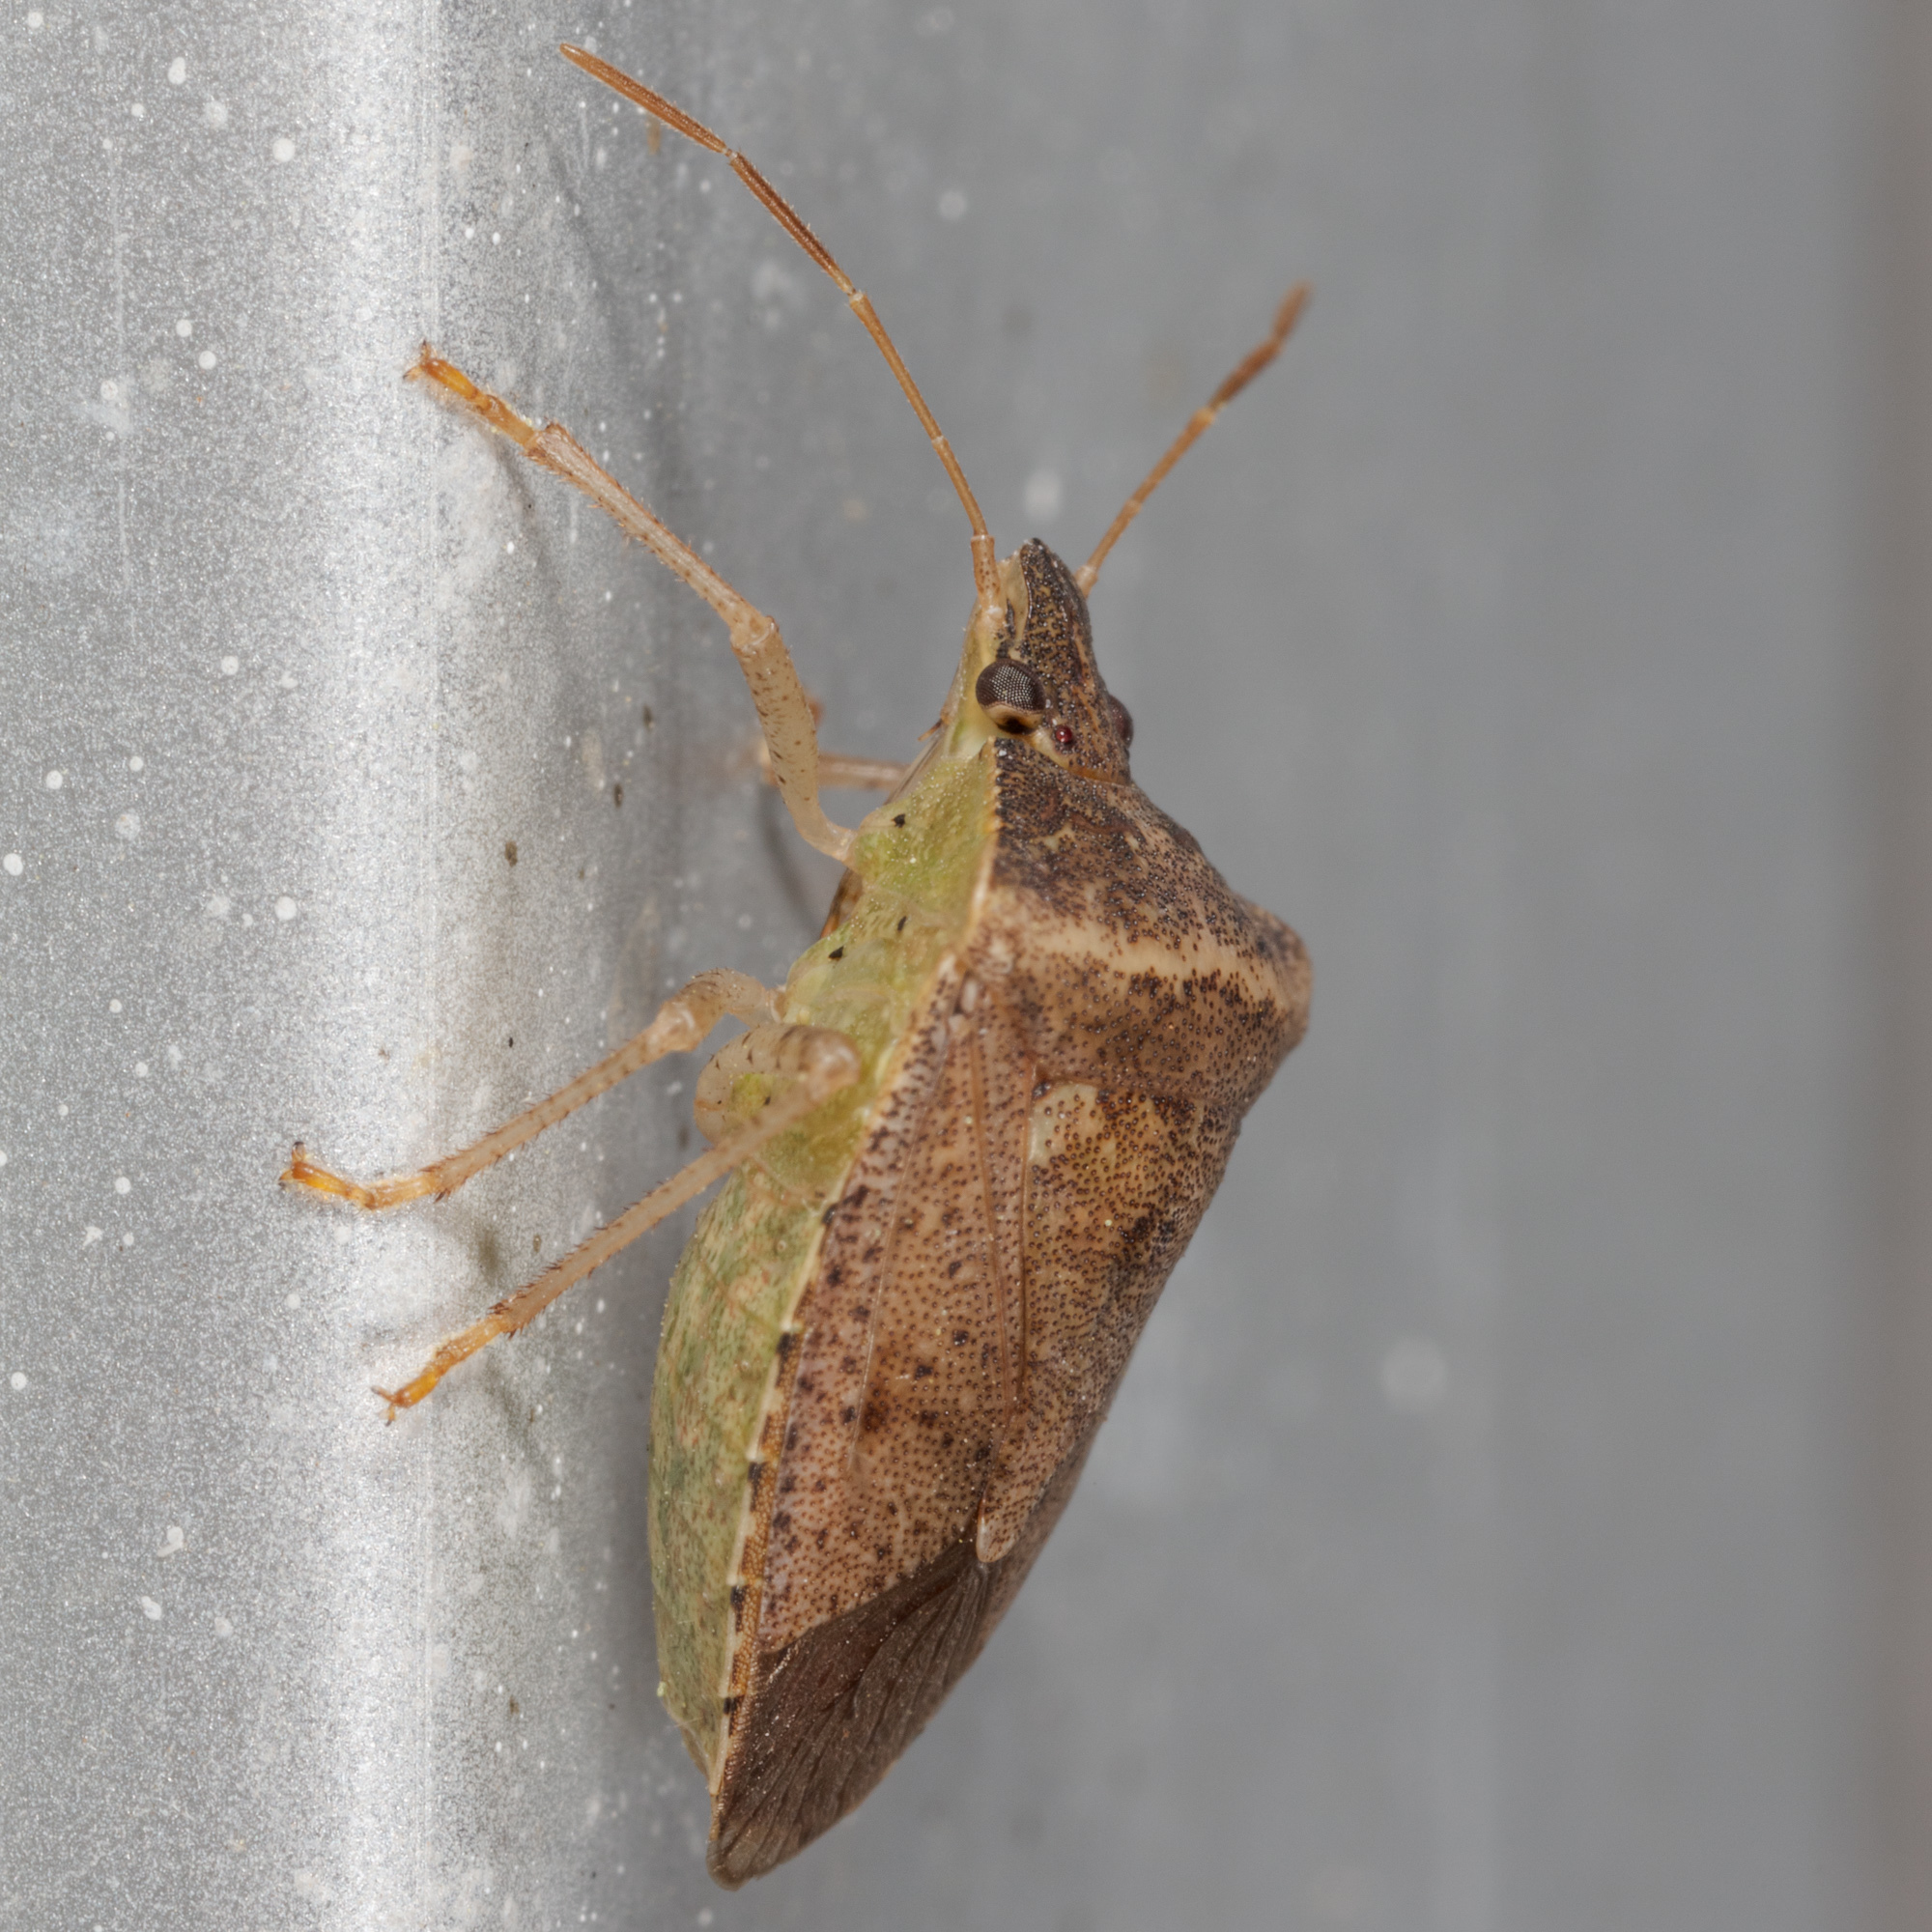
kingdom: Animalia
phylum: Arthropoda
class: Insecta
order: Hemiptera
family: Pentatomidae
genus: Euschistus
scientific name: Euschistus obscurus
